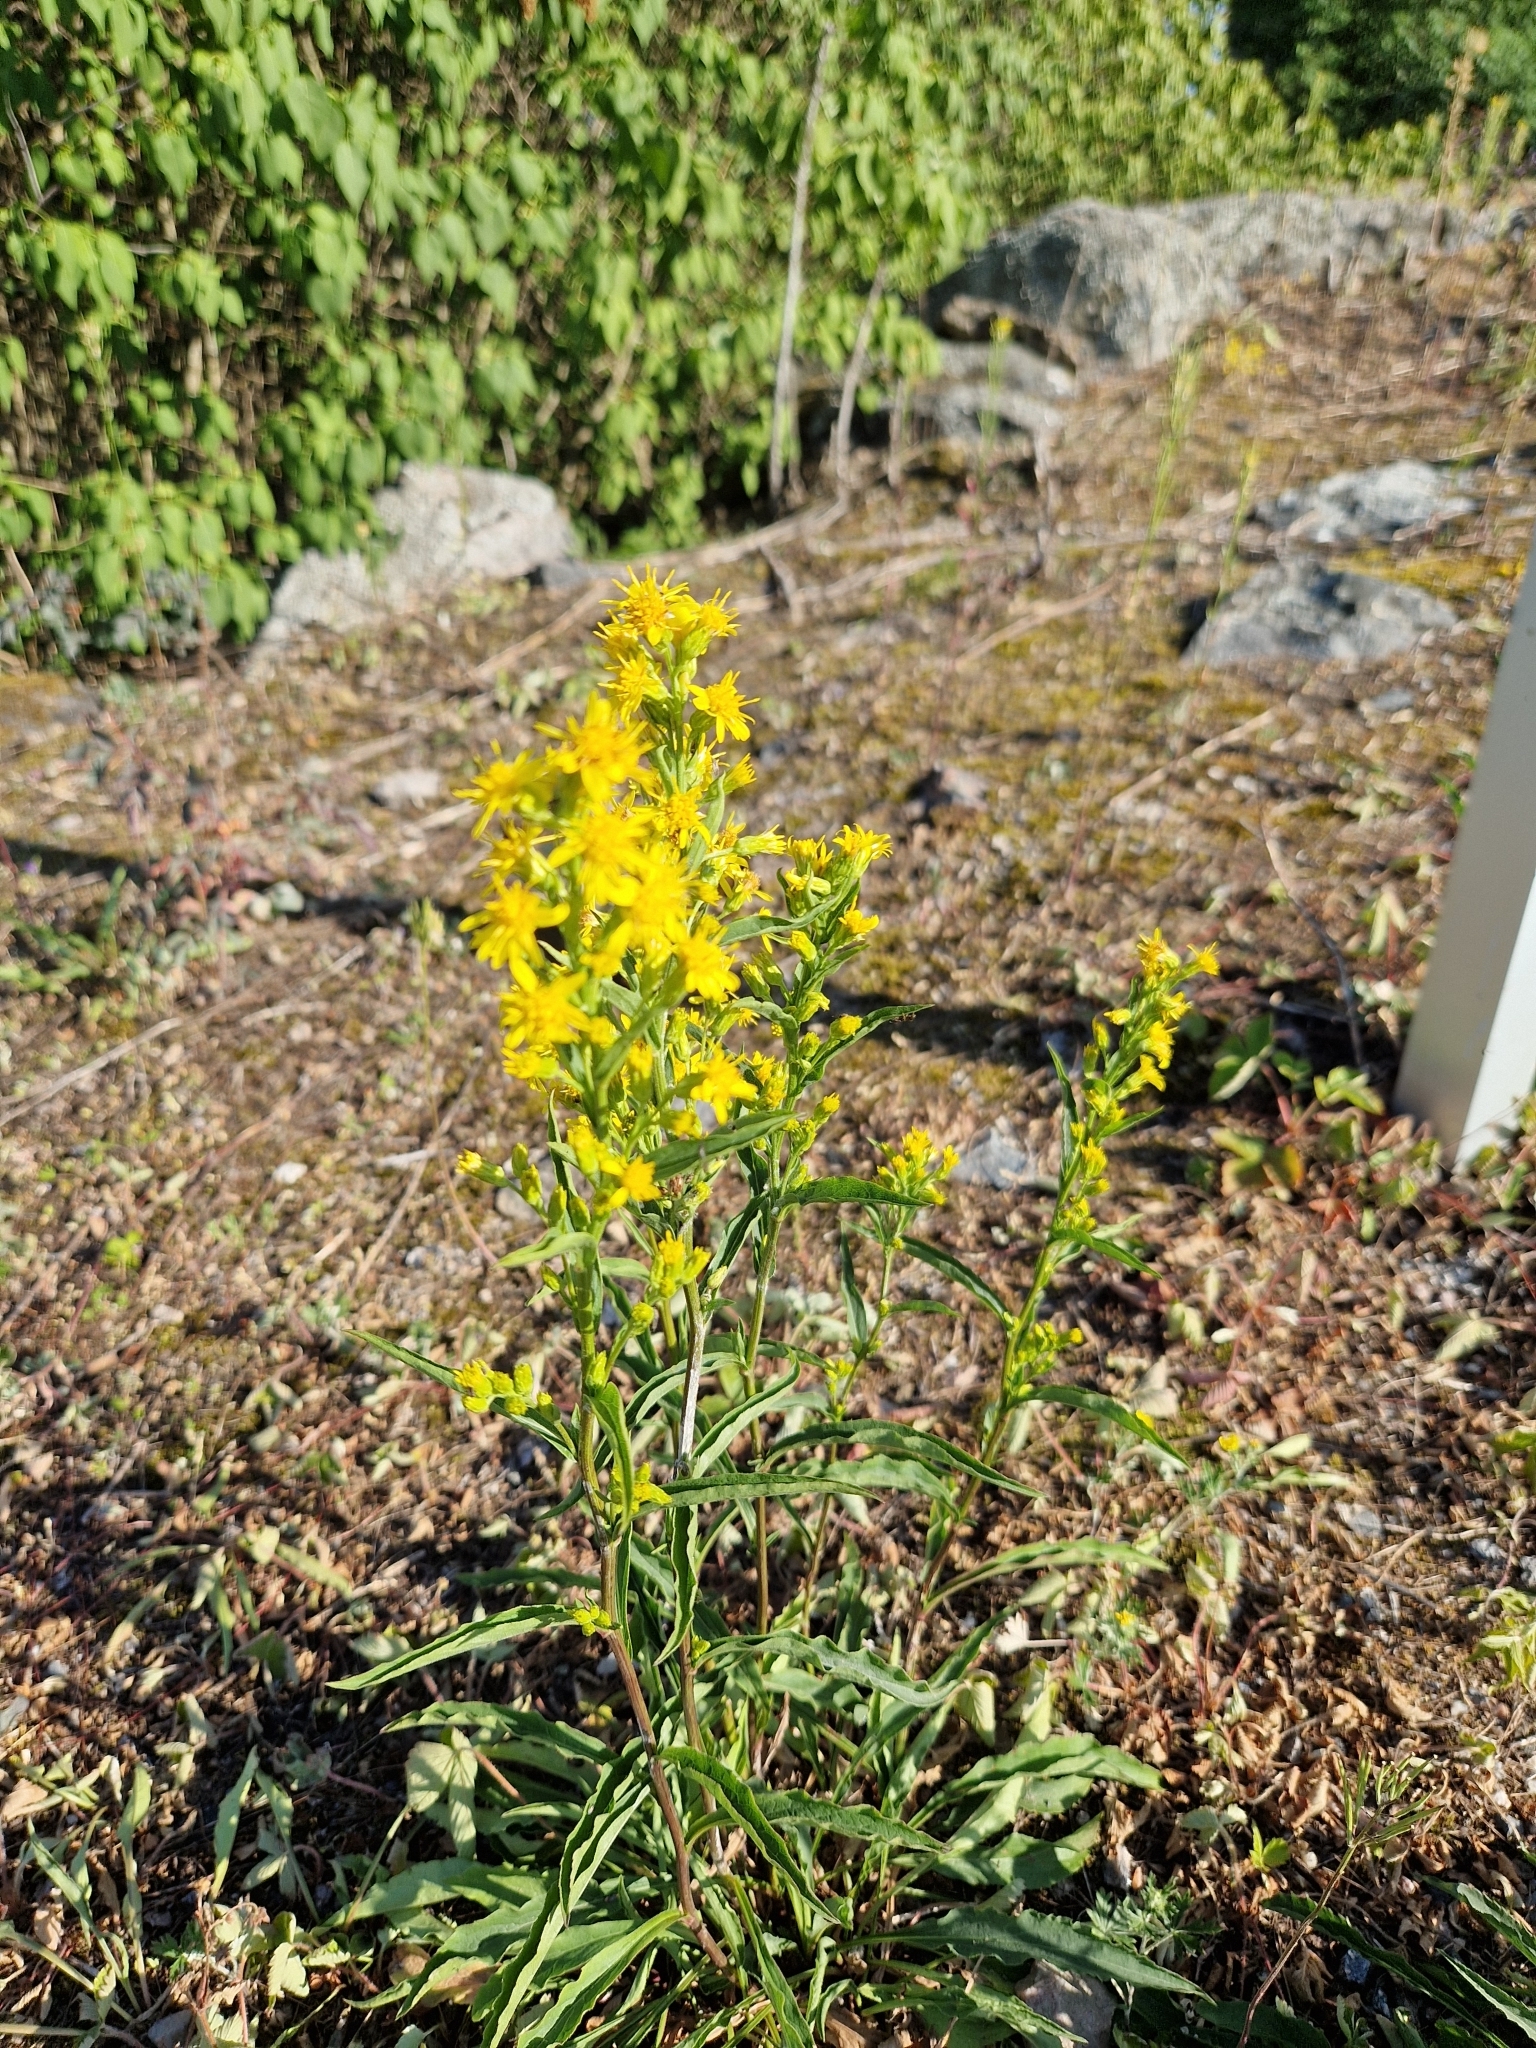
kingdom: Plantae
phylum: Tracheophyta
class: Magnoliopsida
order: Asterales
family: Asteraceae
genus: Solidago
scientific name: Solidago virgaurea
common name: Goldenrod
